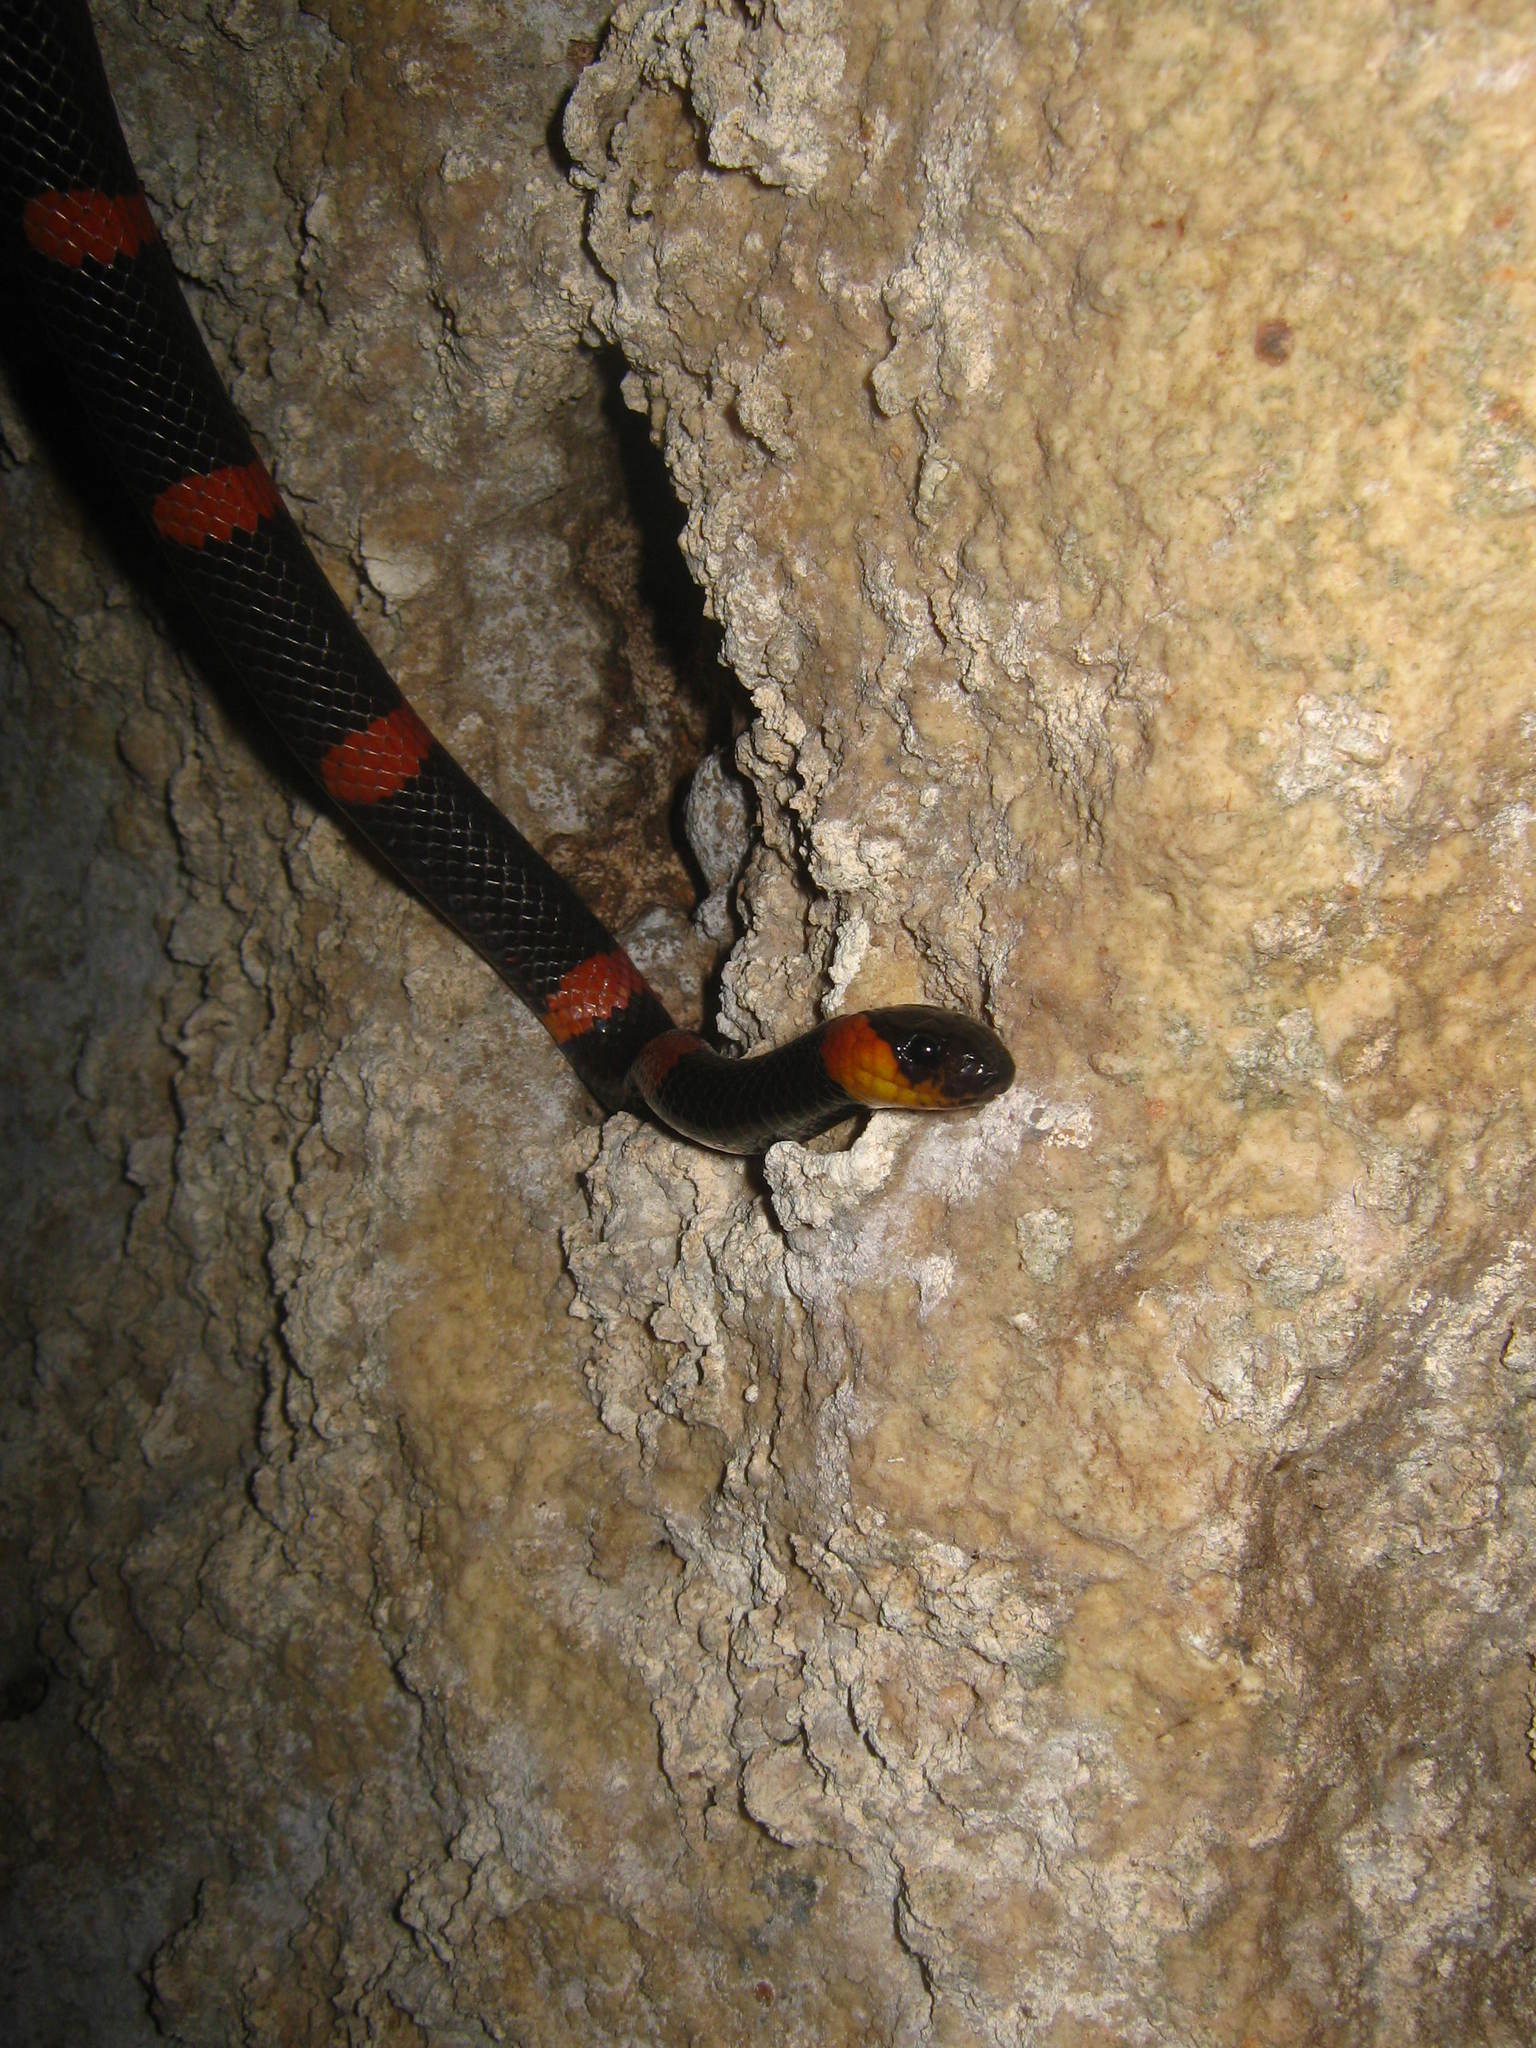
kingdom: Animalia
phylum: Chordata
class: Squamata
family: Colubridae
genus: Geophis
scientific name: Geophis
